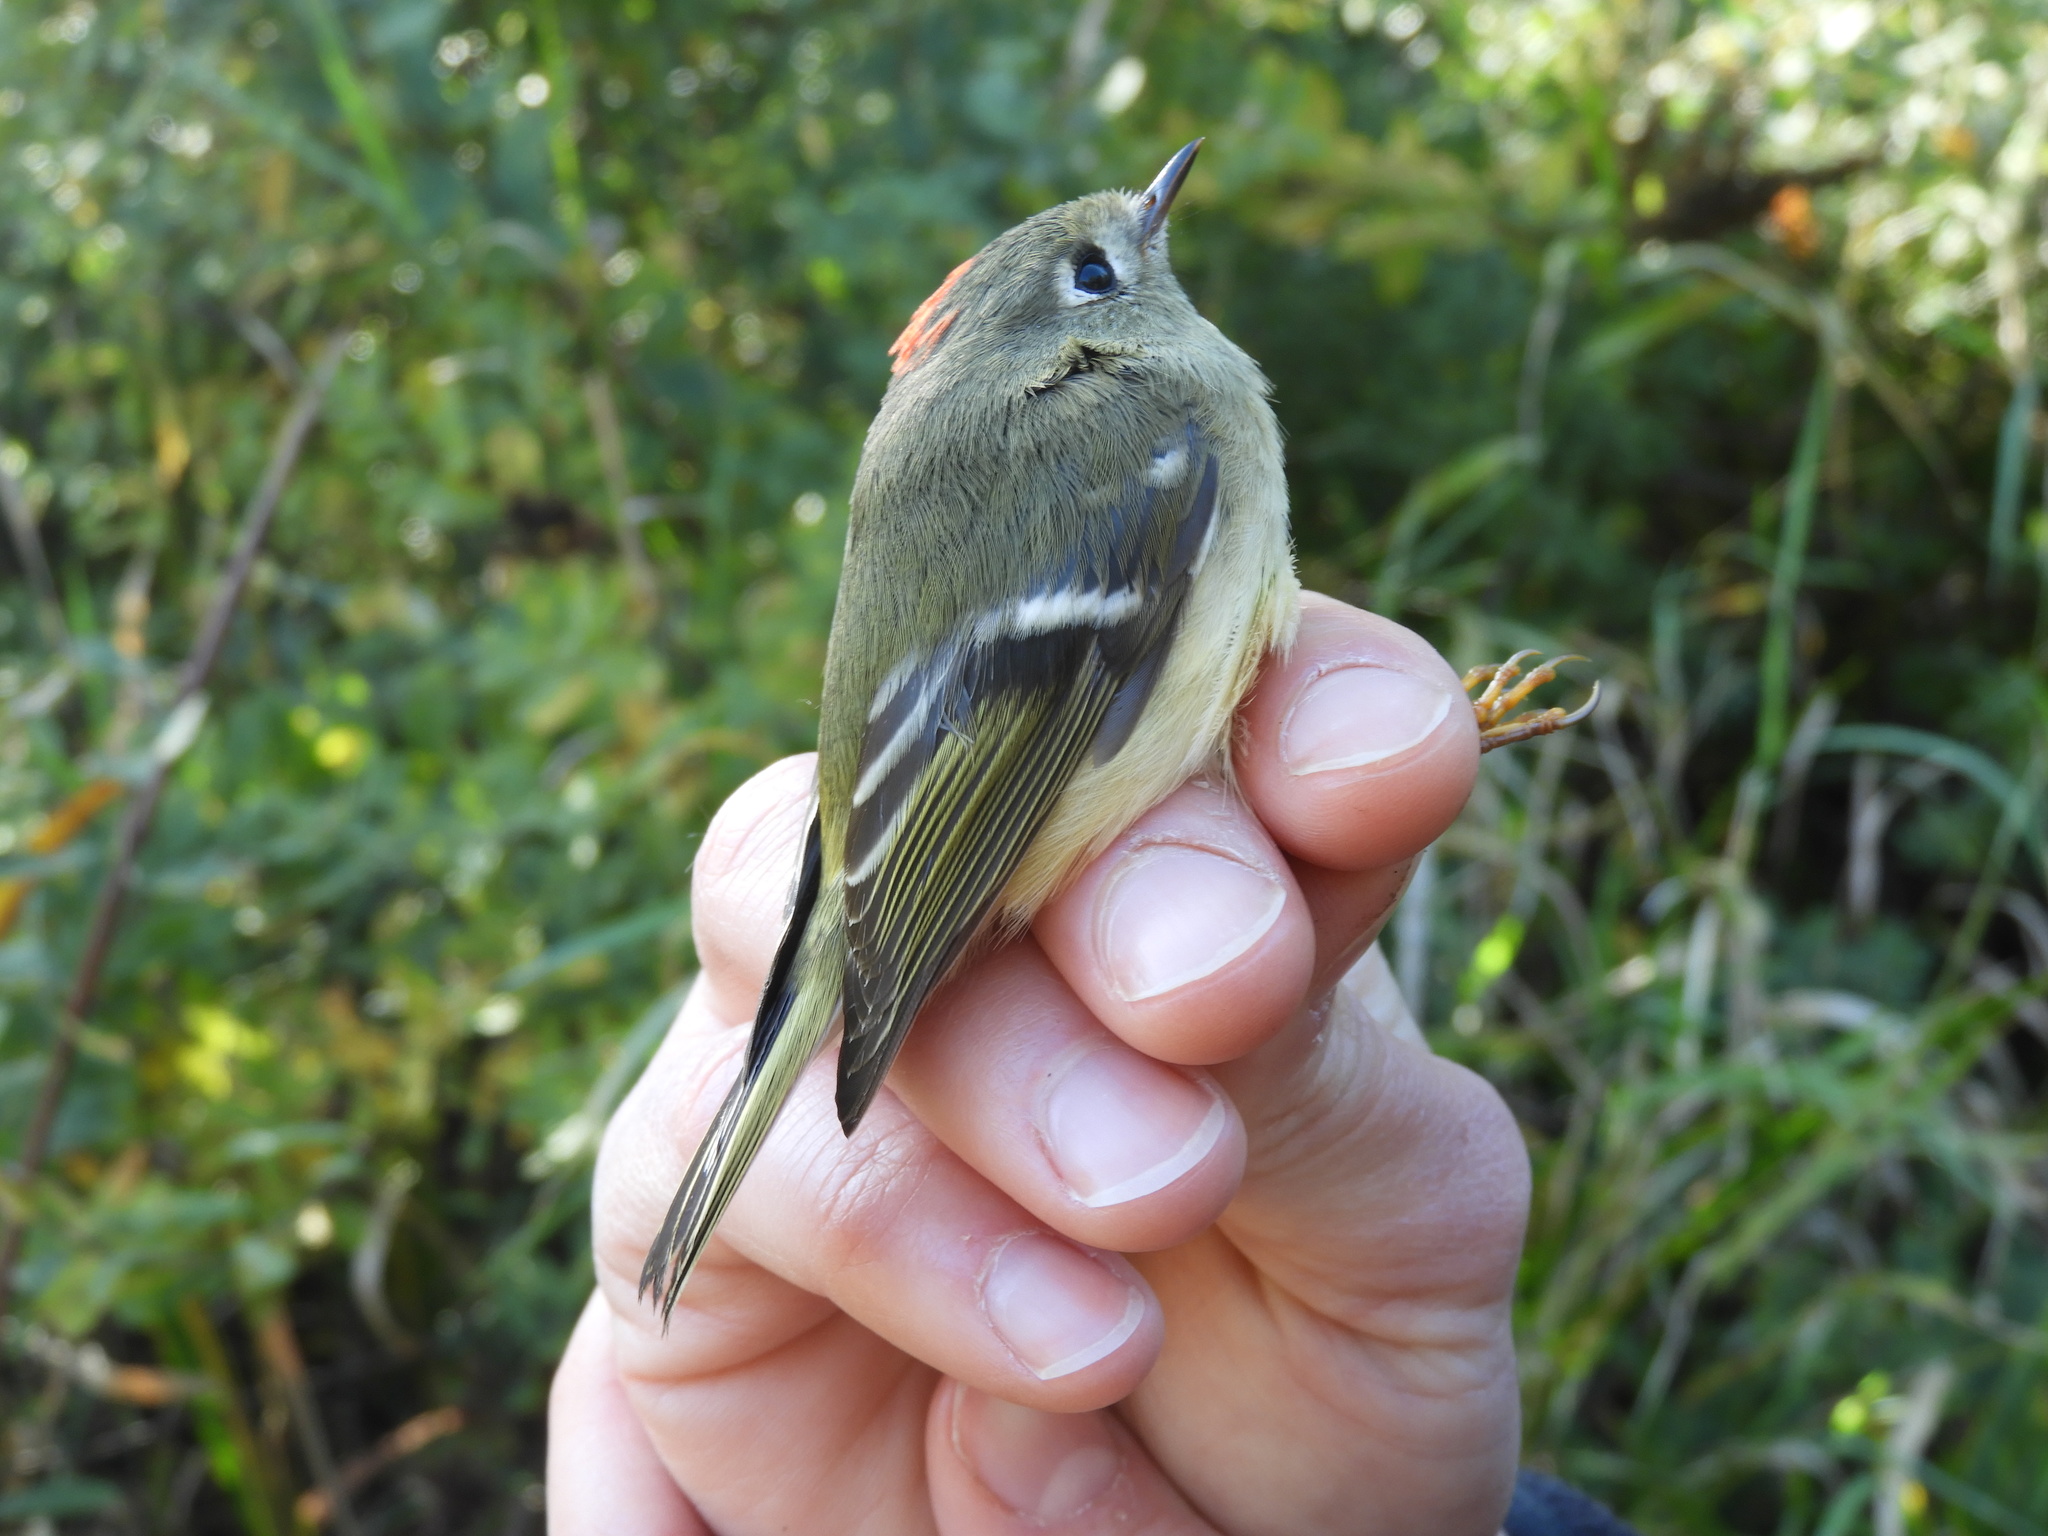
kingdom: Animalia
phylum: Chordata
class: Aves
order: Passeriformes
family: Regulidae
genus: Regulus
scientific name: Regulus calendula
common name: Ruby-crowned kinglet
